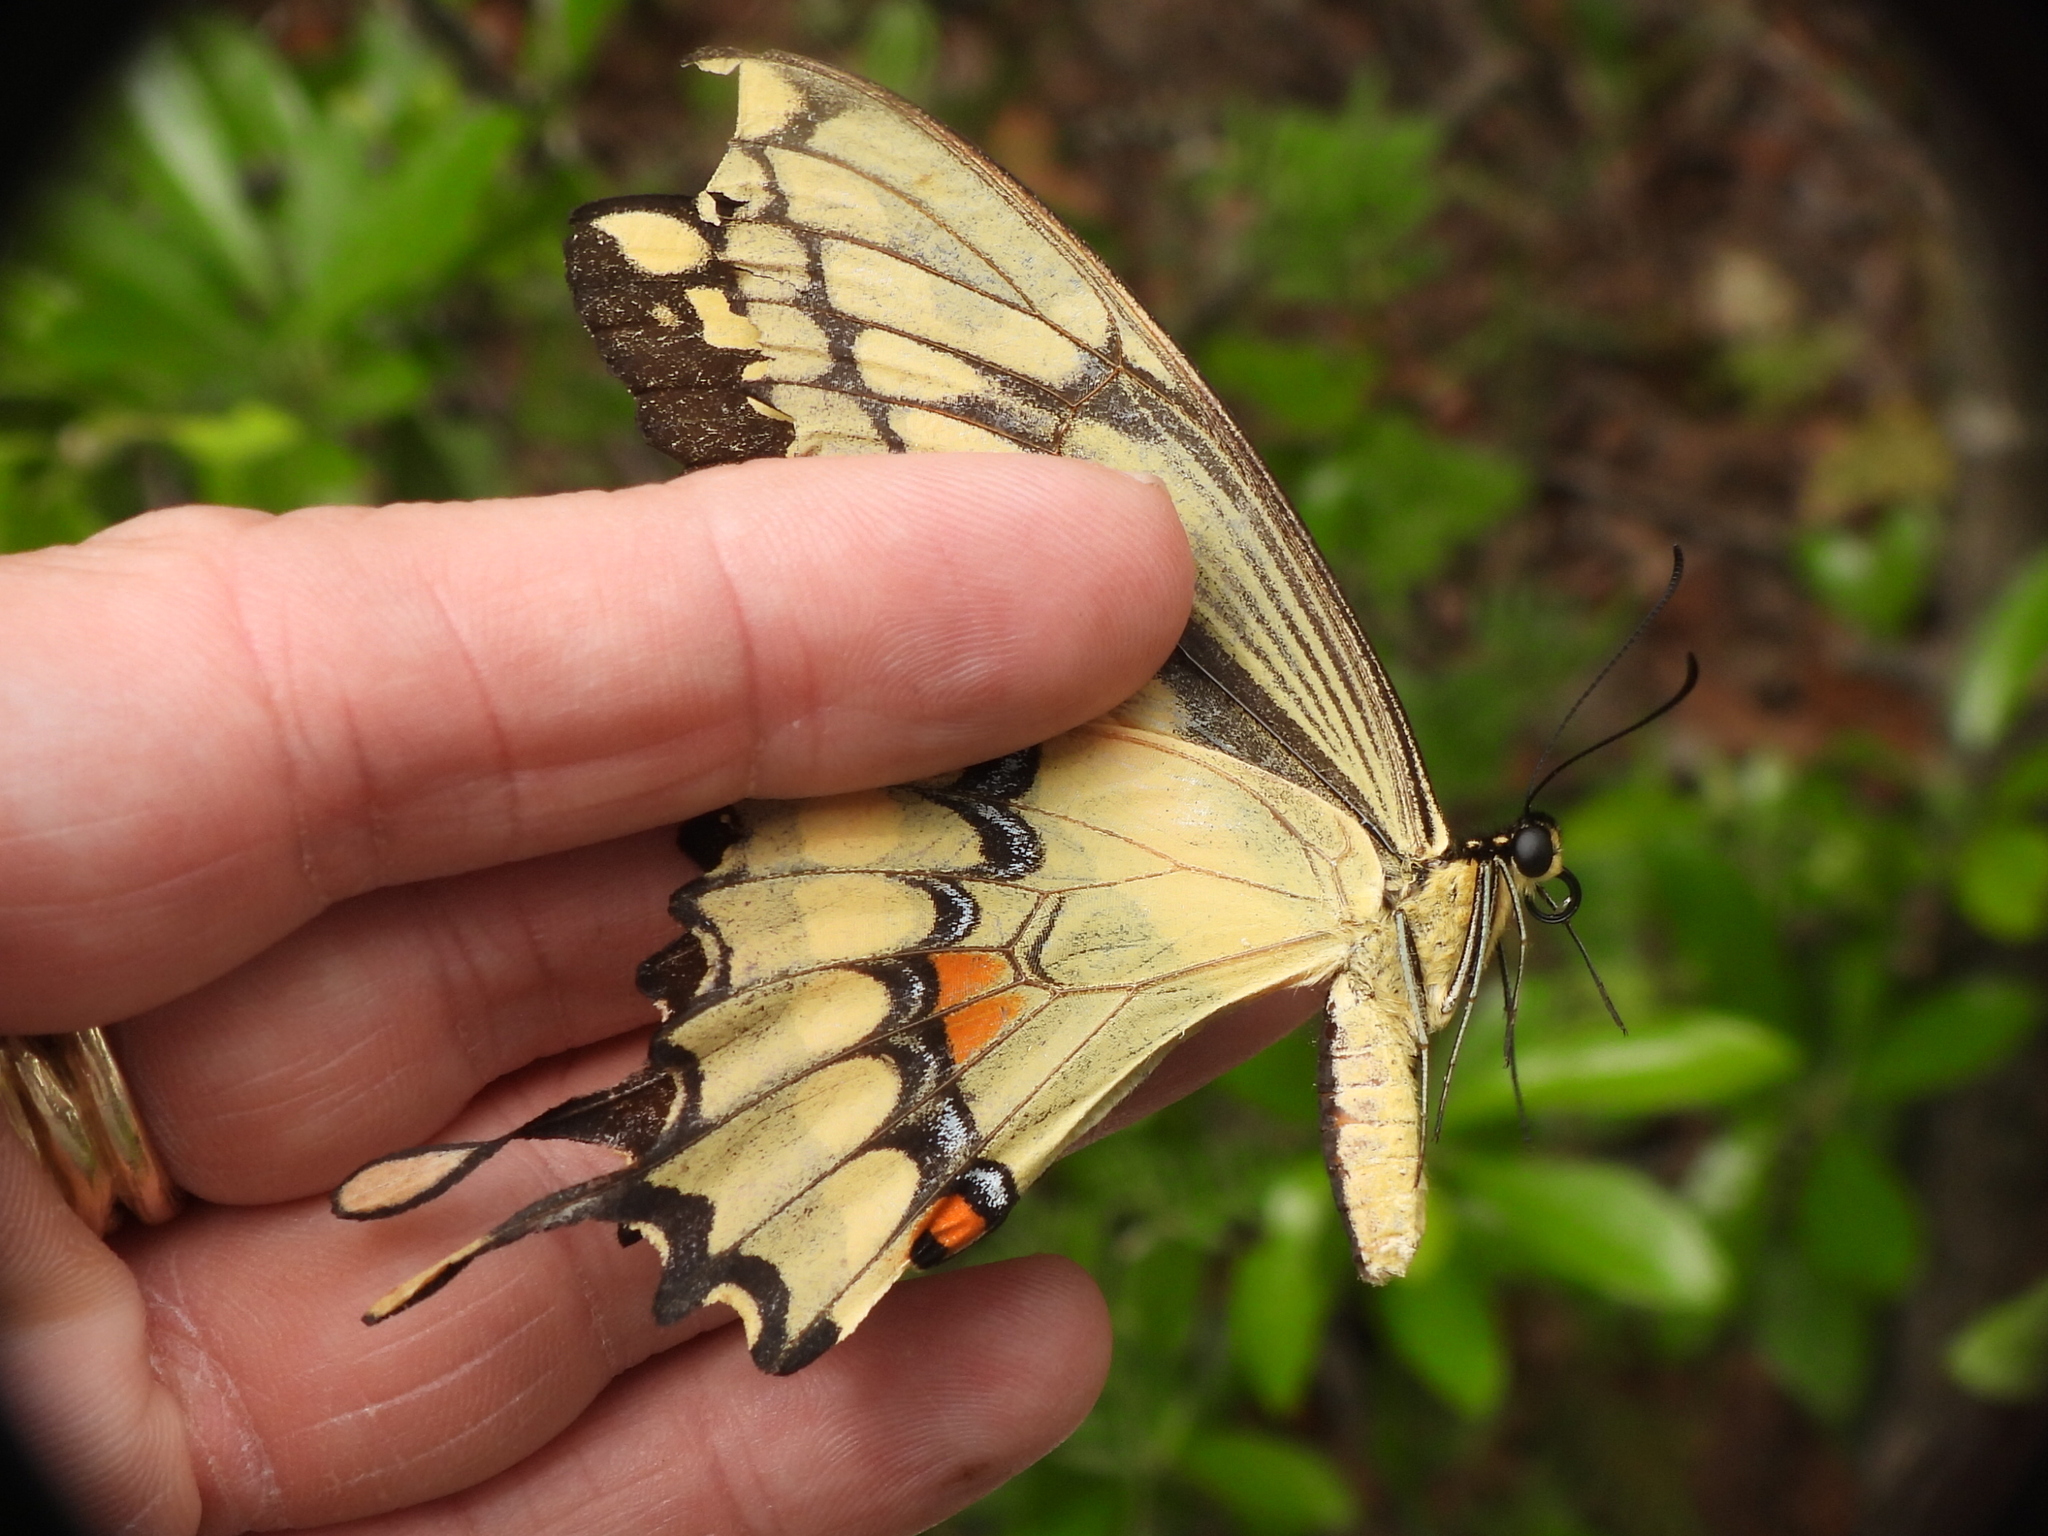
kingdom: Animalia
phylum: Arthropoda
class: Insecta
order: Lepidoptera
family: Papilionidae
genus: Papilio
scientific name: Papilio cresphontes
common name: Giant swallowtail
